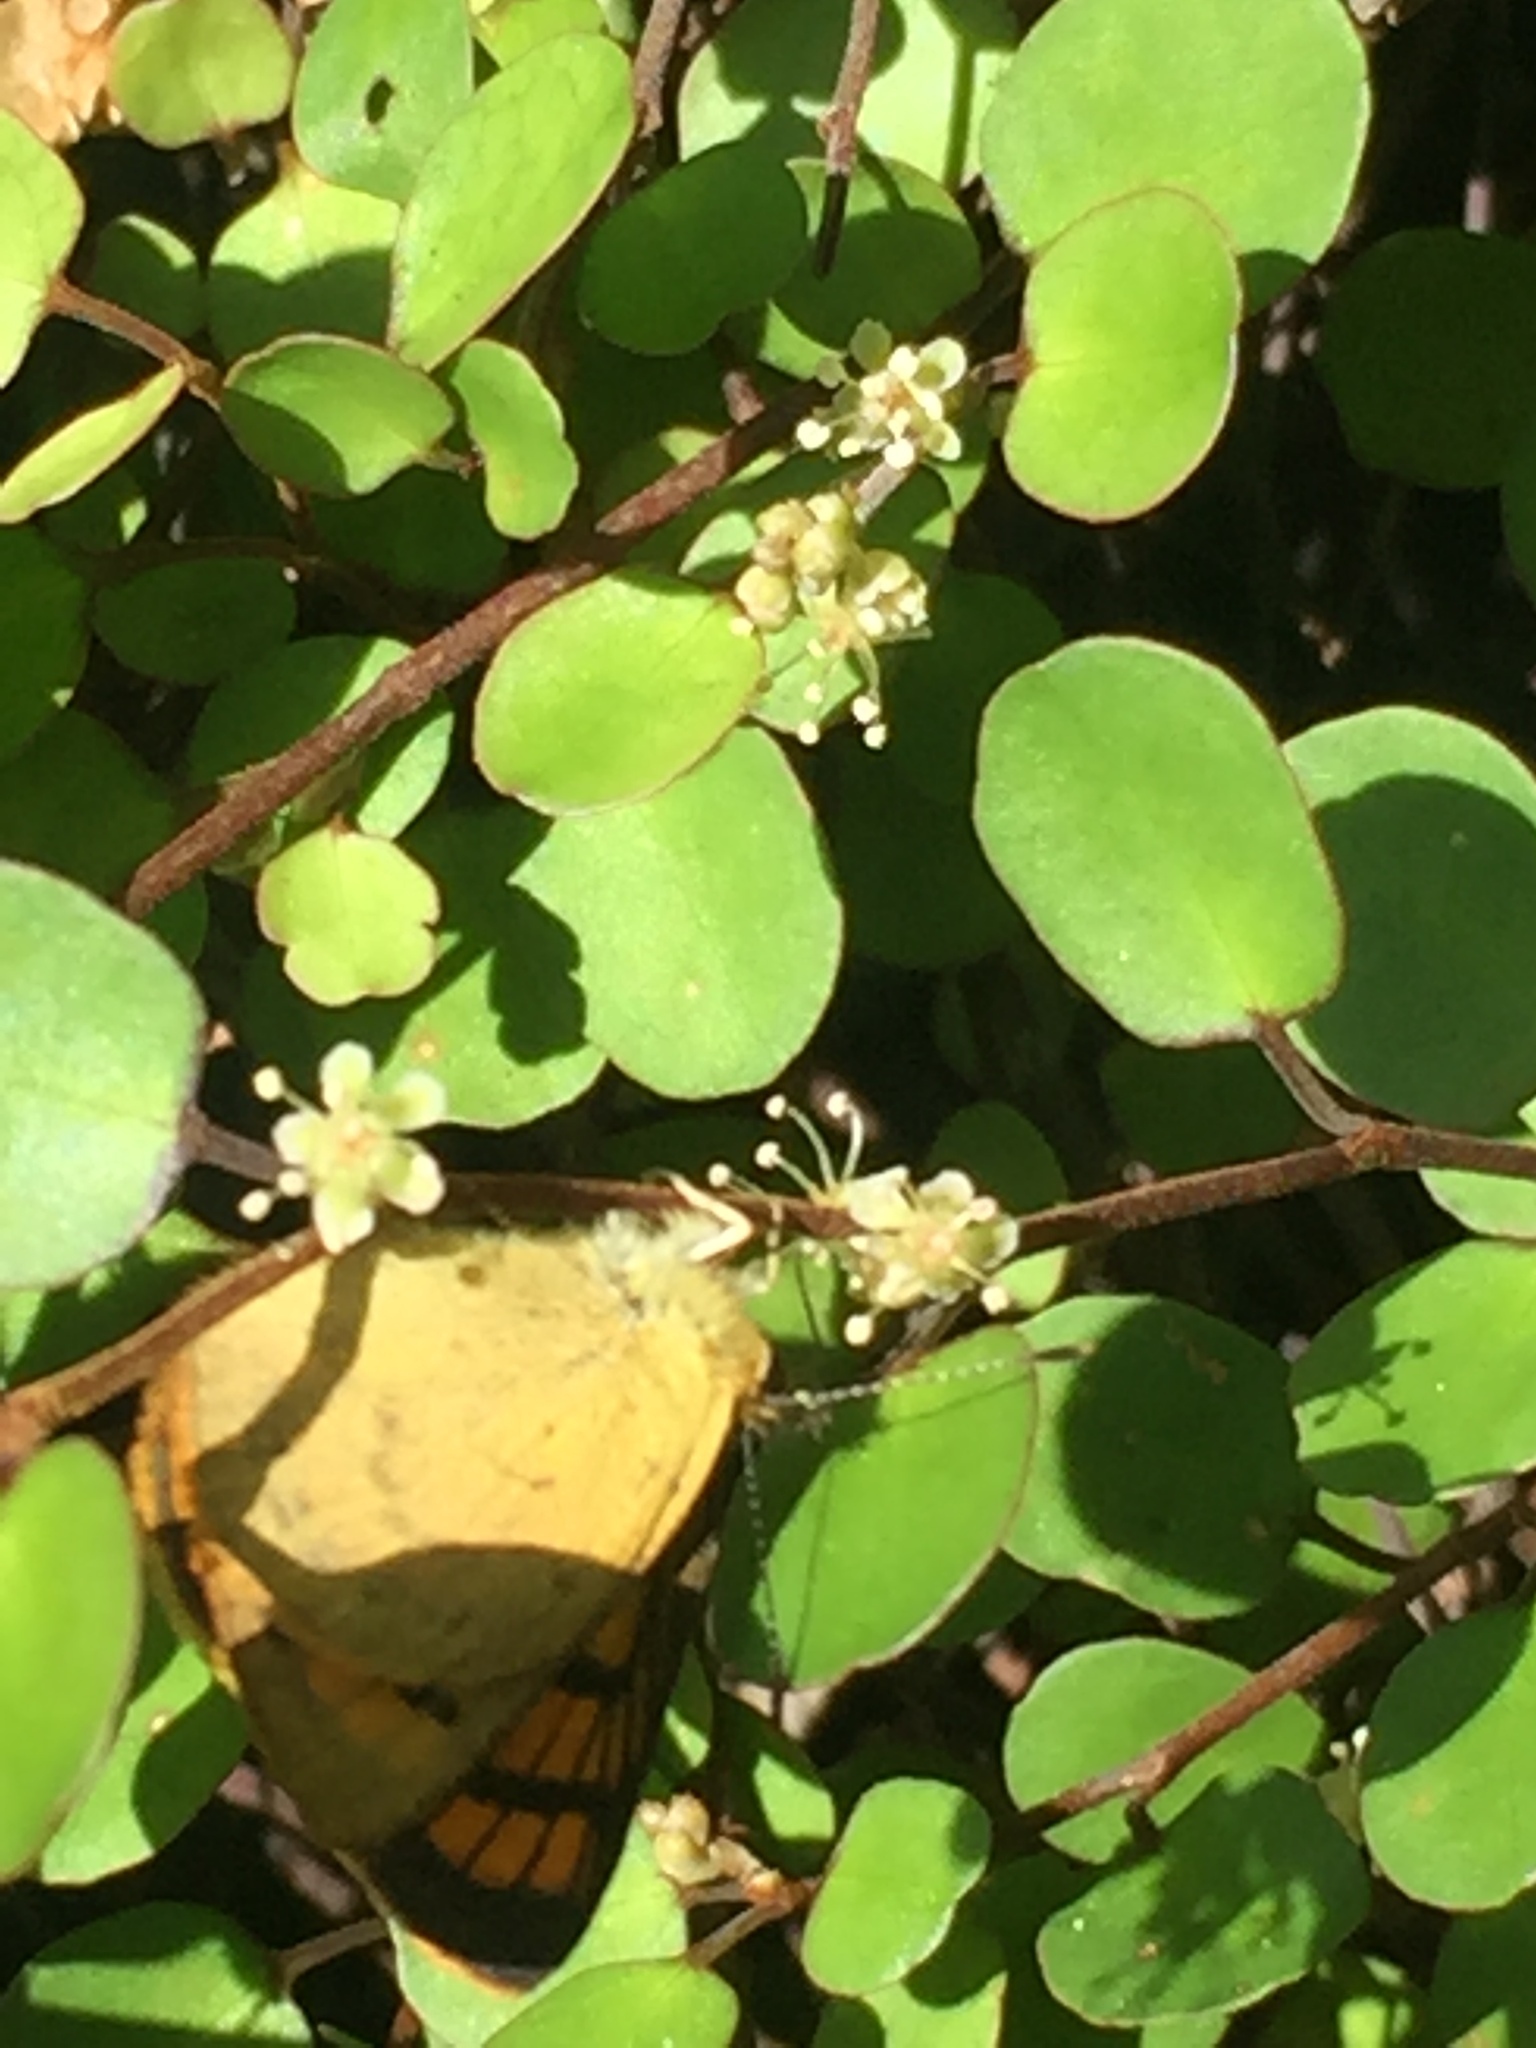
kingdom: Animalia
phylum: Arthropoda
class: Insecta
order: Lepidoptera
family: Lycaenidae
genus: Lycaena
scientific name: Lycaena salustius
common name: North island coastal copper
